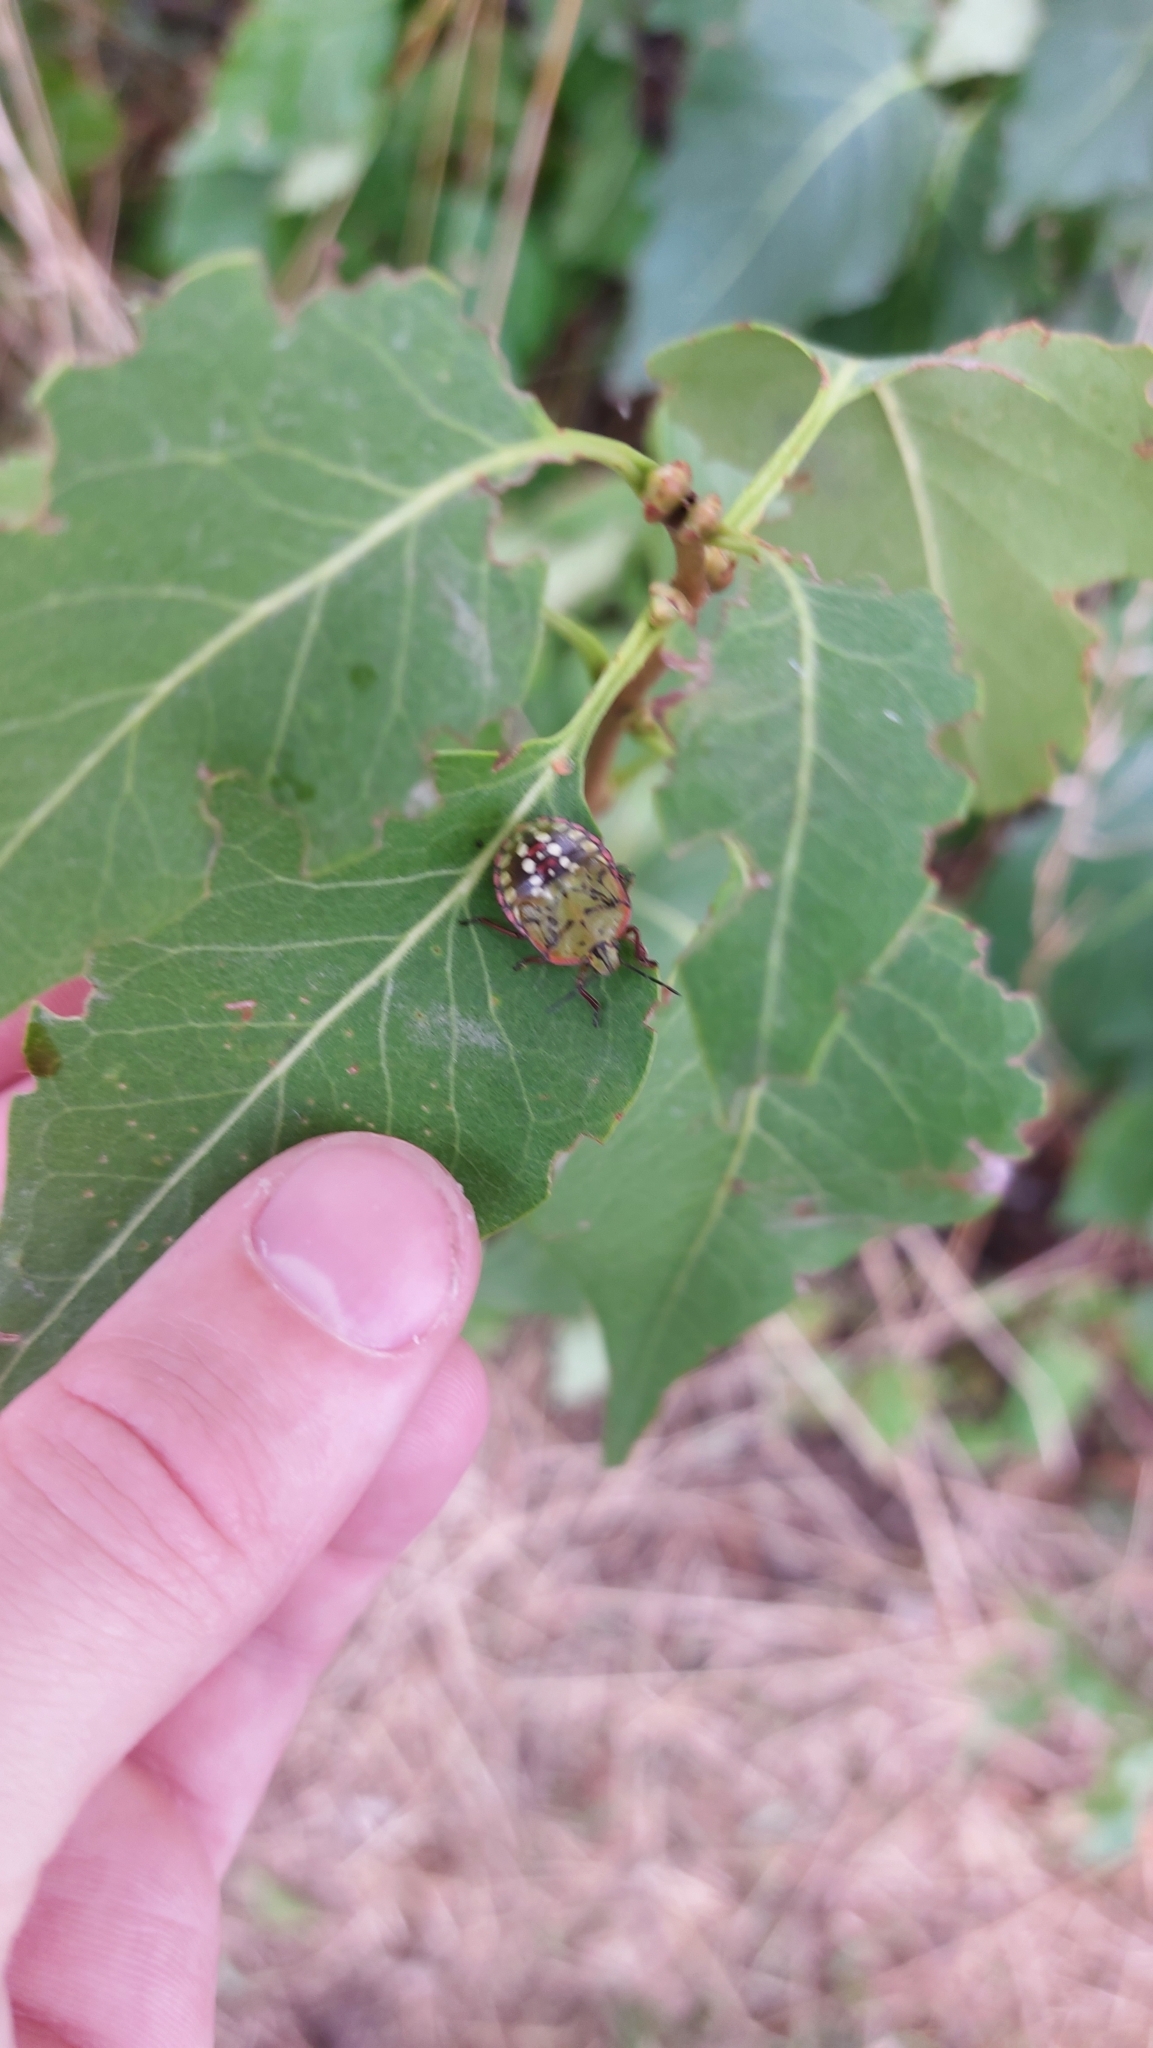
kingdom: Animalia
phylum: Arthropoda
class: Insecta
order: Hemiptera
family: Pentatomidae
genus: Nezara
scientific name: Nezara viridula
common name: Southern green stink bug
